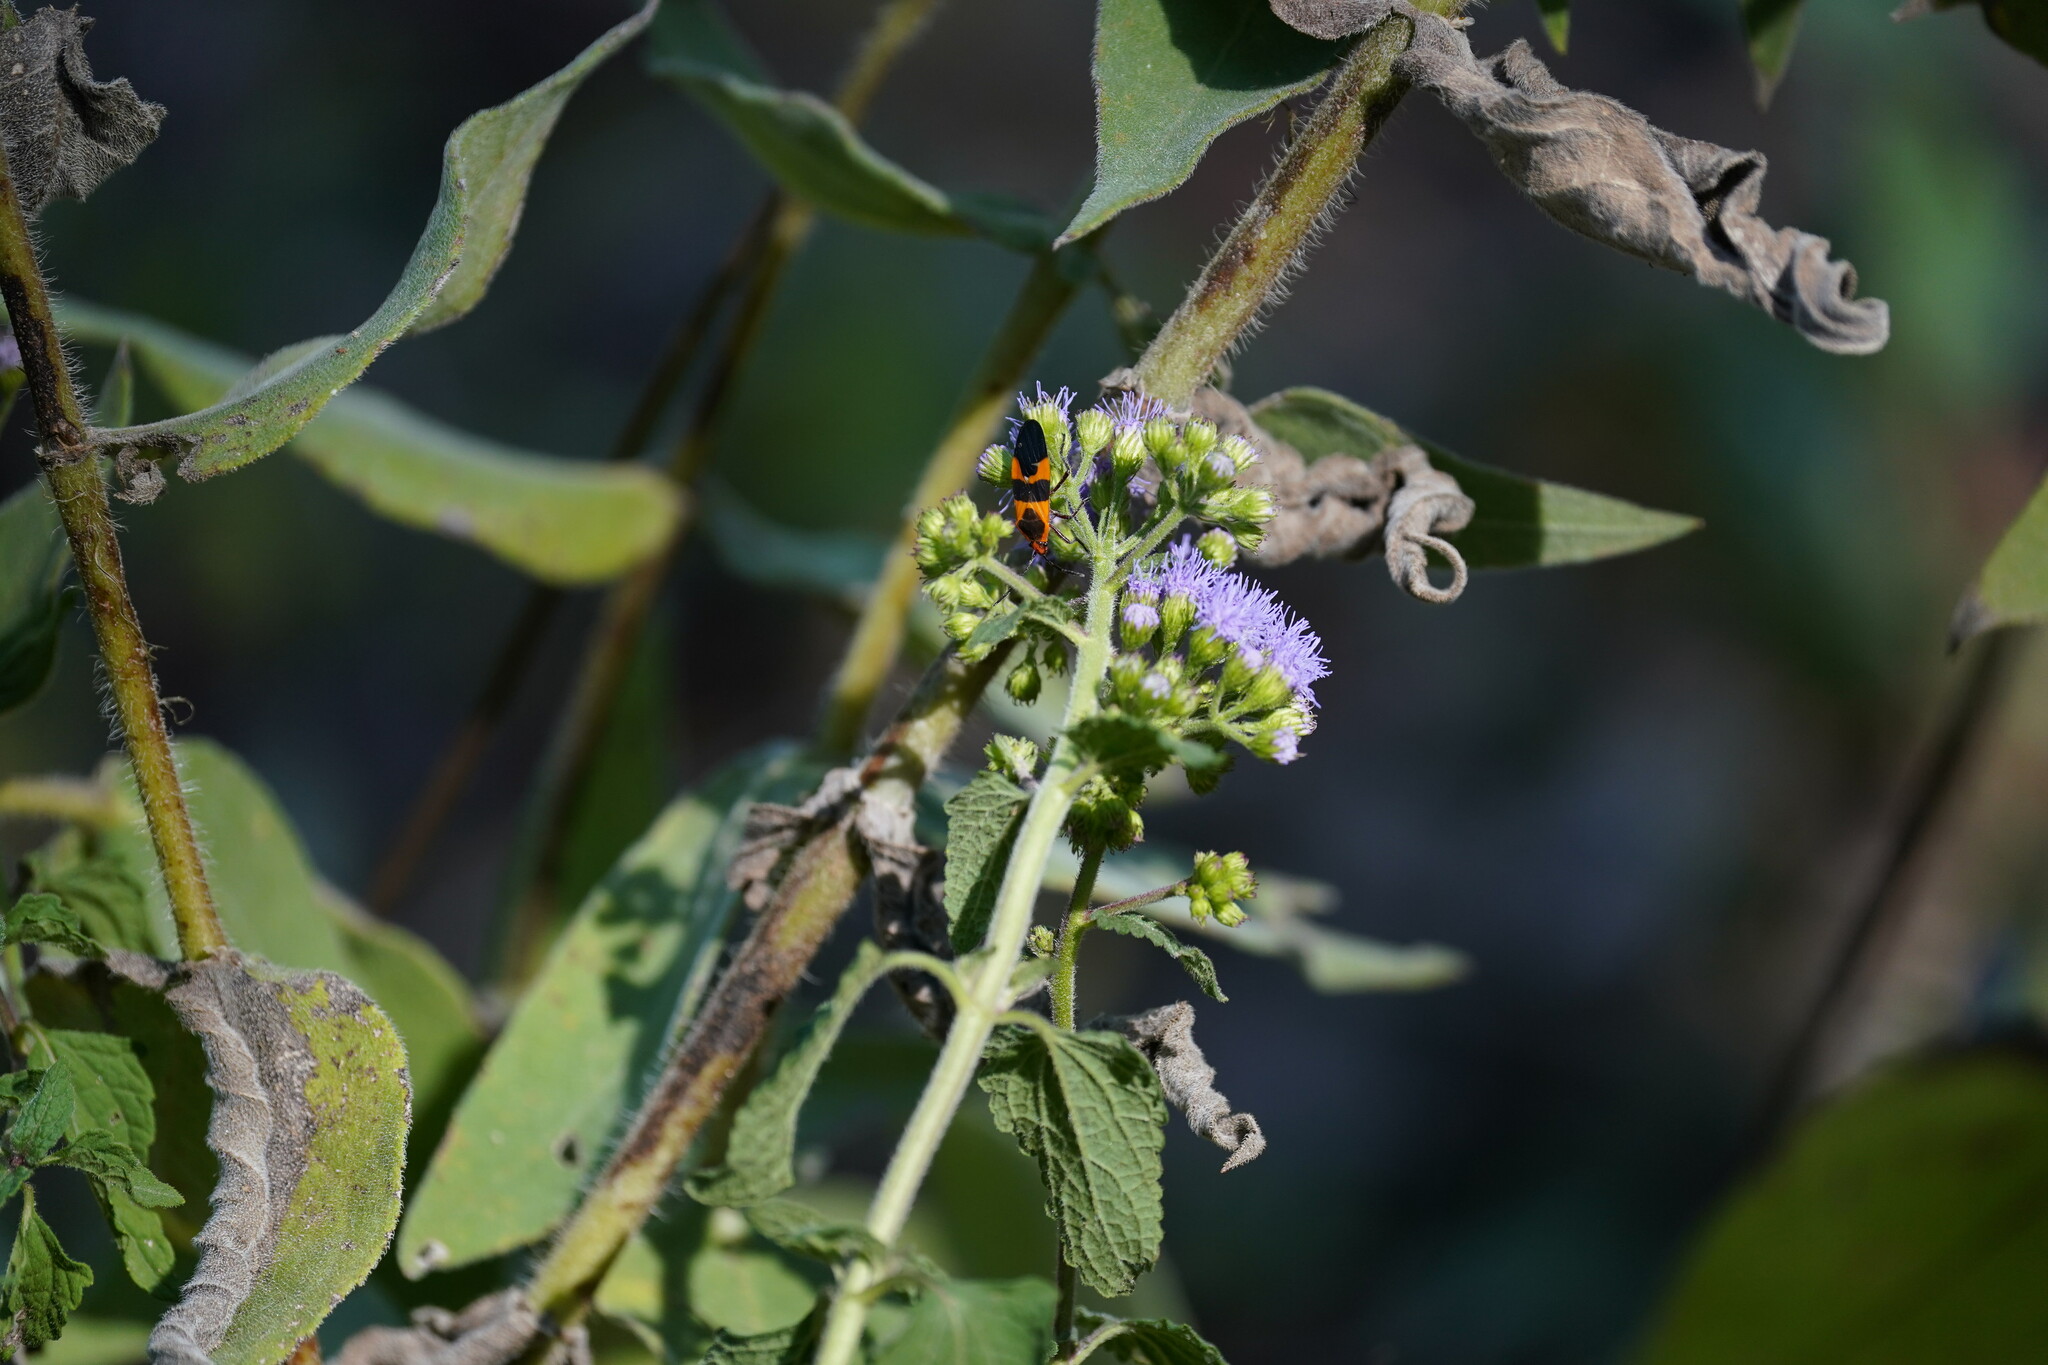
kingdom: Animalia
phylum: Arthropoda
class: Insecta
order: Hemiptera
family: Lygaeidae
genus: Oncopeltus
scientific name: Oncopeltus fasciatus
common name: Large milkweed bug
